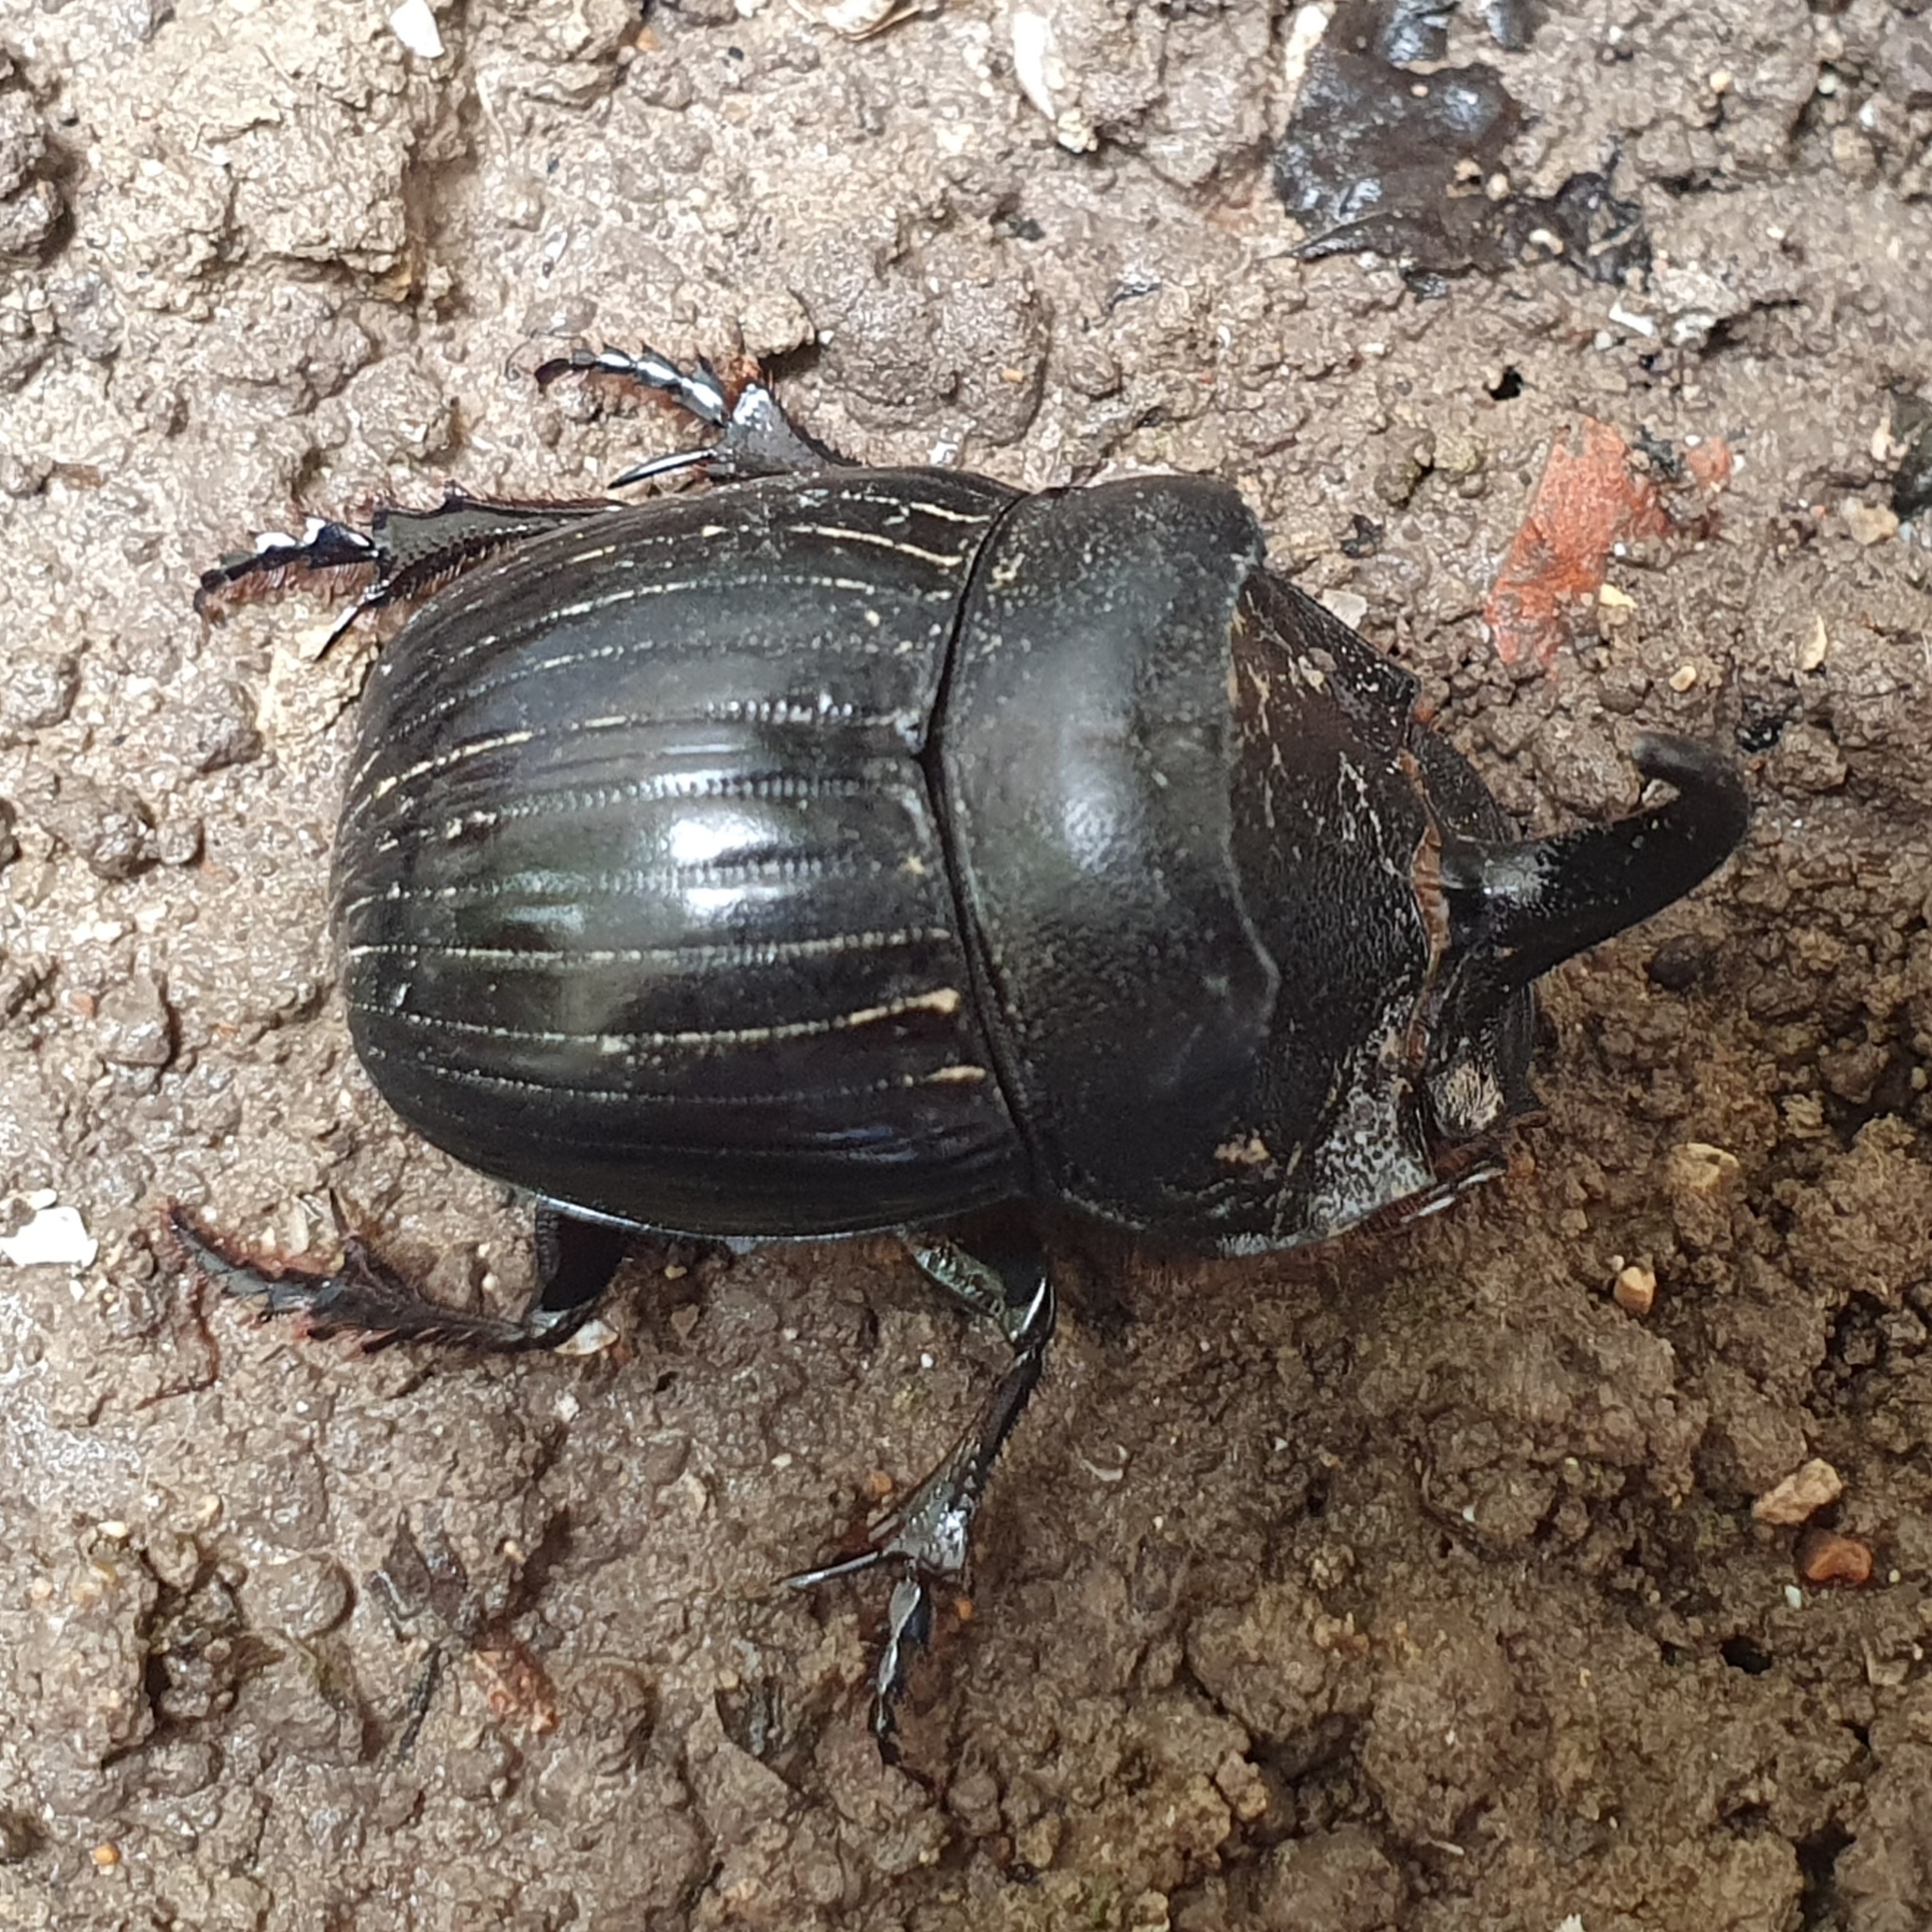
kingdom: Animalia
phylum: Arthropoda
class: Insecta
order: Coleoptera
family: Scarabaeidae
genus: Copris
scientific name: Copris hispanus
